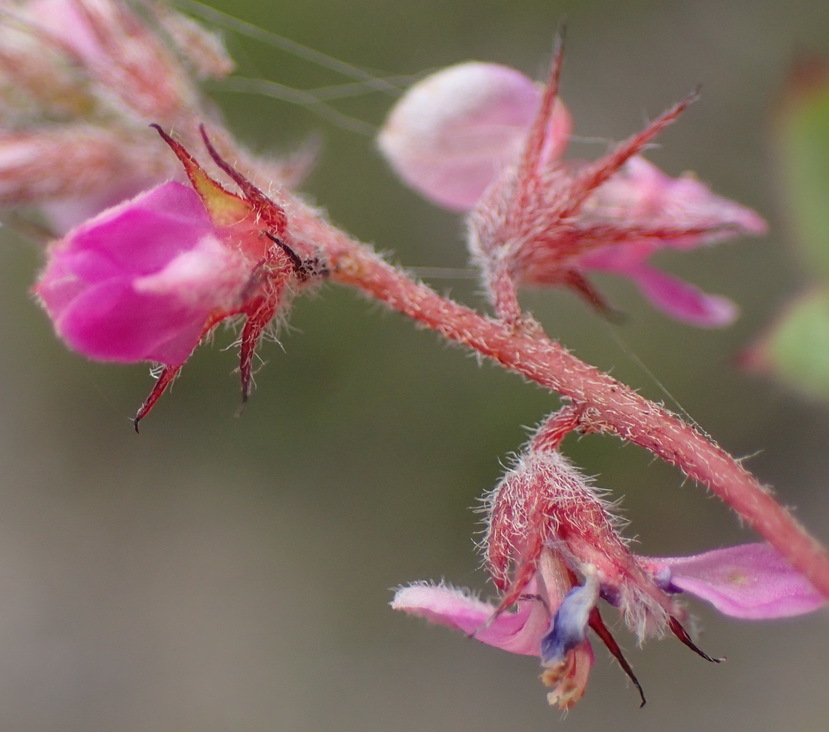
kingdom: Plantae
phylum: Tracheophyta
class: Magnoliopsida
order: Fabales
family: Fabaceae
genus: Indigofera
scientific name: Indigofera alopecuroides
